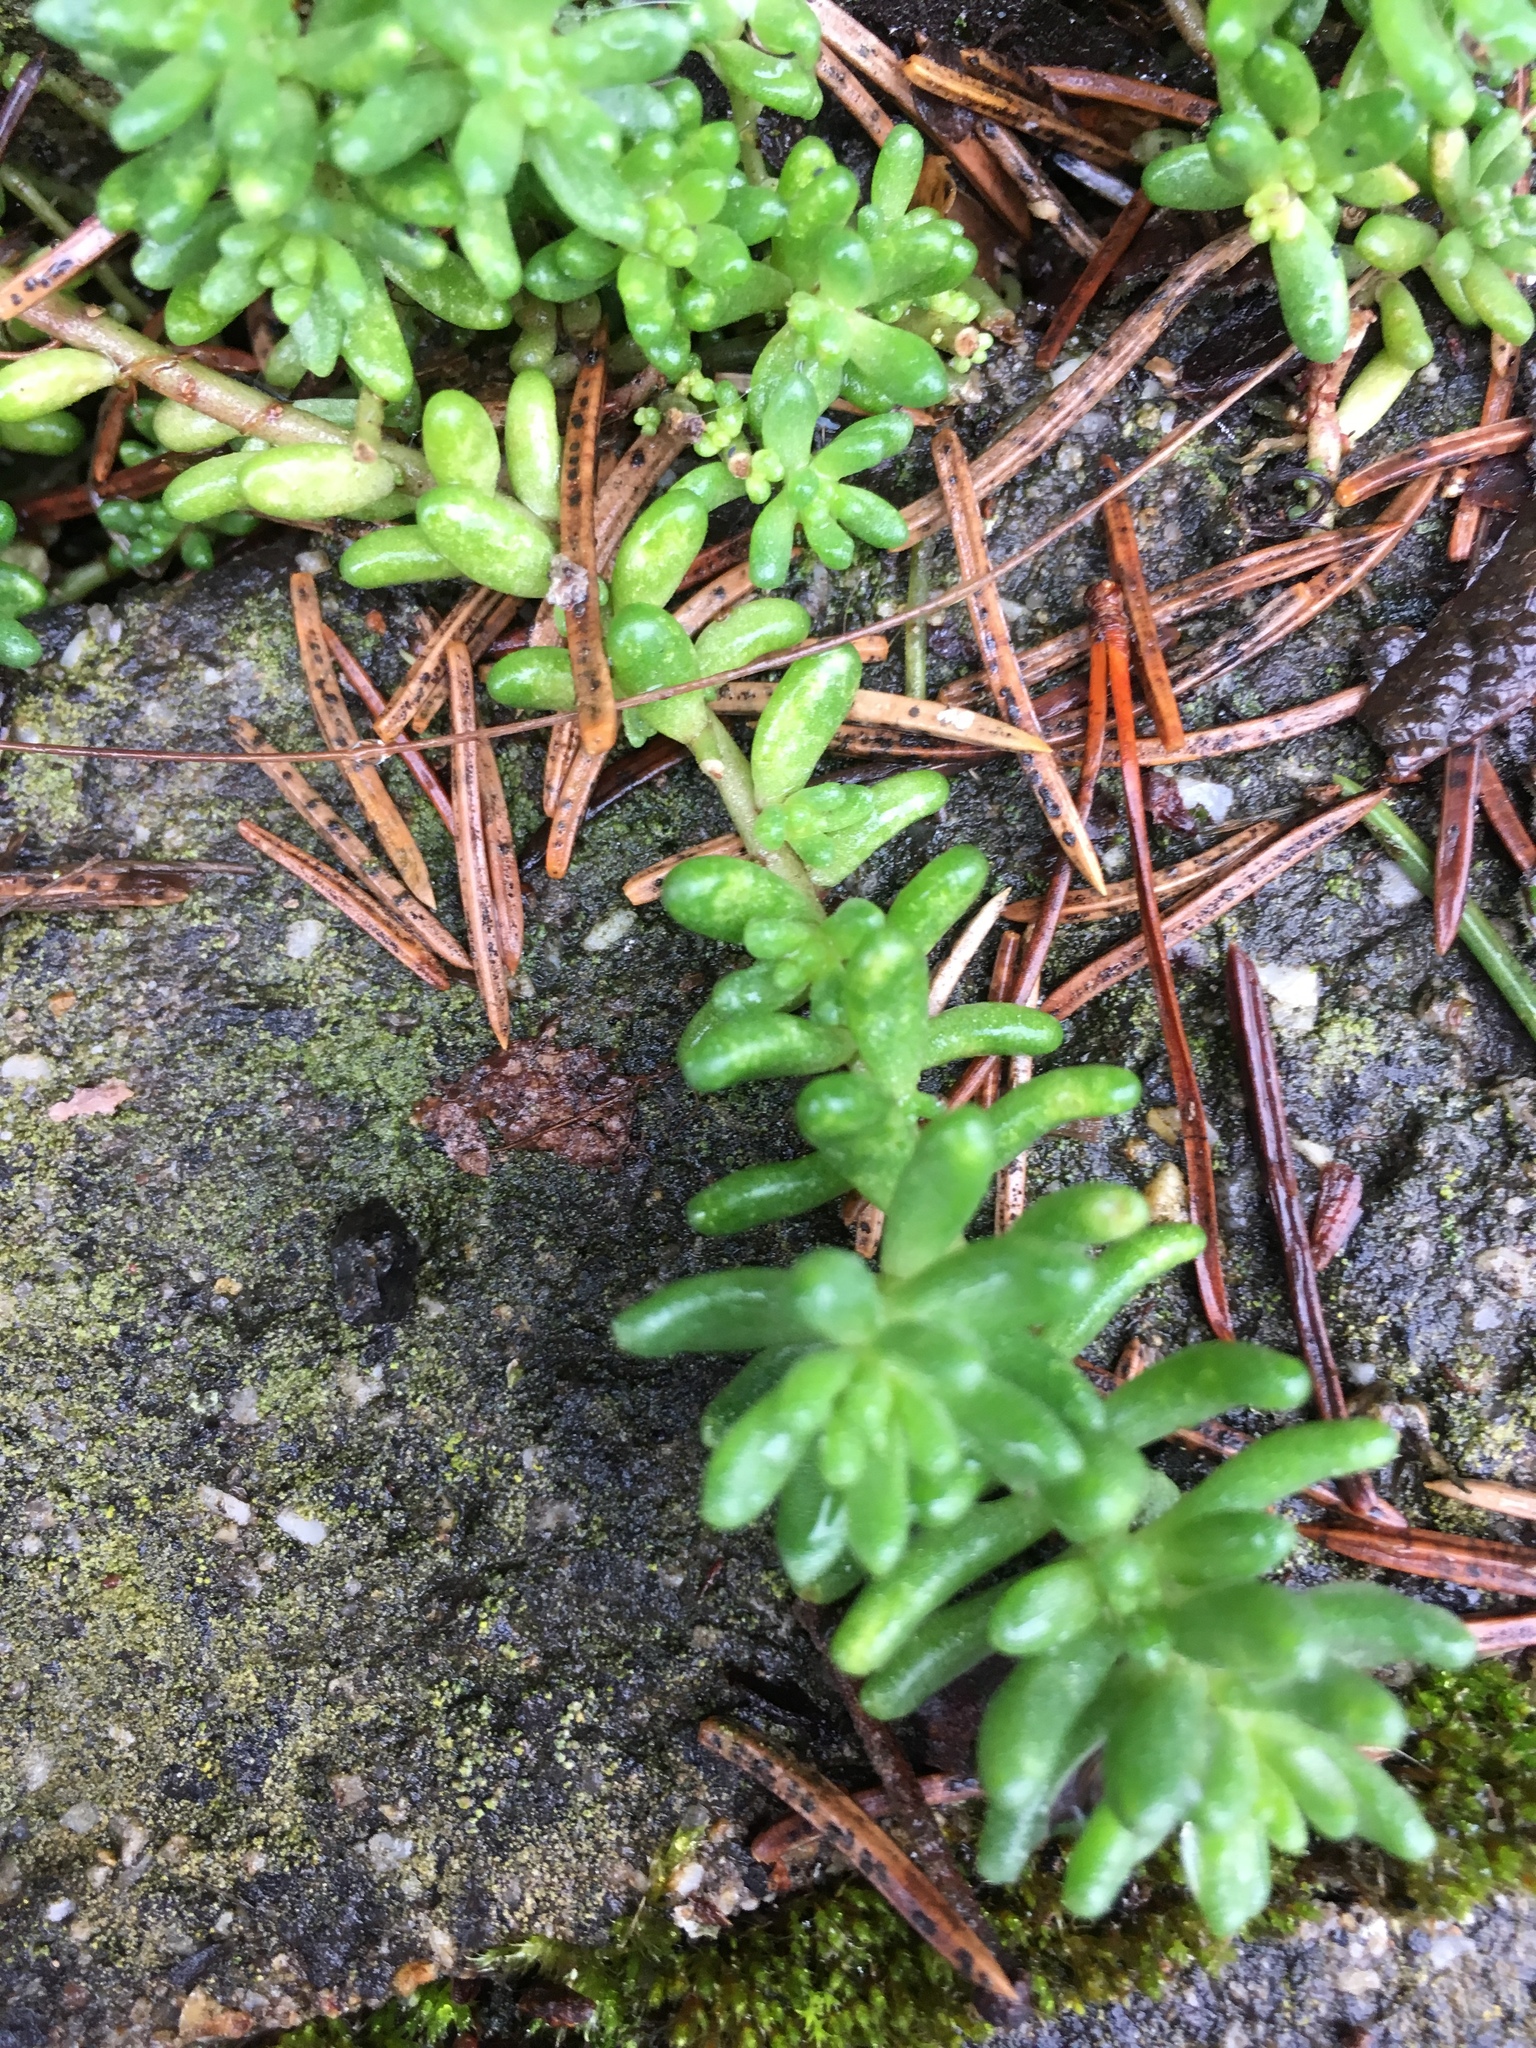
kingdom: Plantae
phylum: Tracheophyta
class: Magnoliopsida
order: Saxifragales
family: Crassulaceae
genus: Sedum
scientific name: Sedum album
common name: White stonecrop
